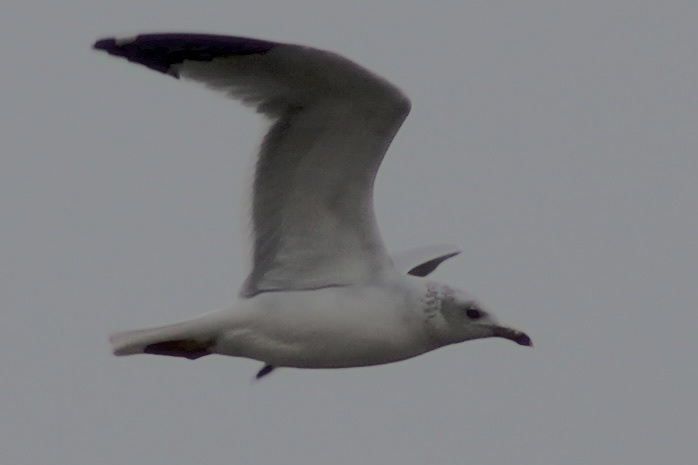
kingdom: Animalia
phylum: Chordata
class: Aves
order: Charadriiformes
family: Laridae
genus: Larus
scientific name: Larus delawarensis
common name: Ring-billed gull
